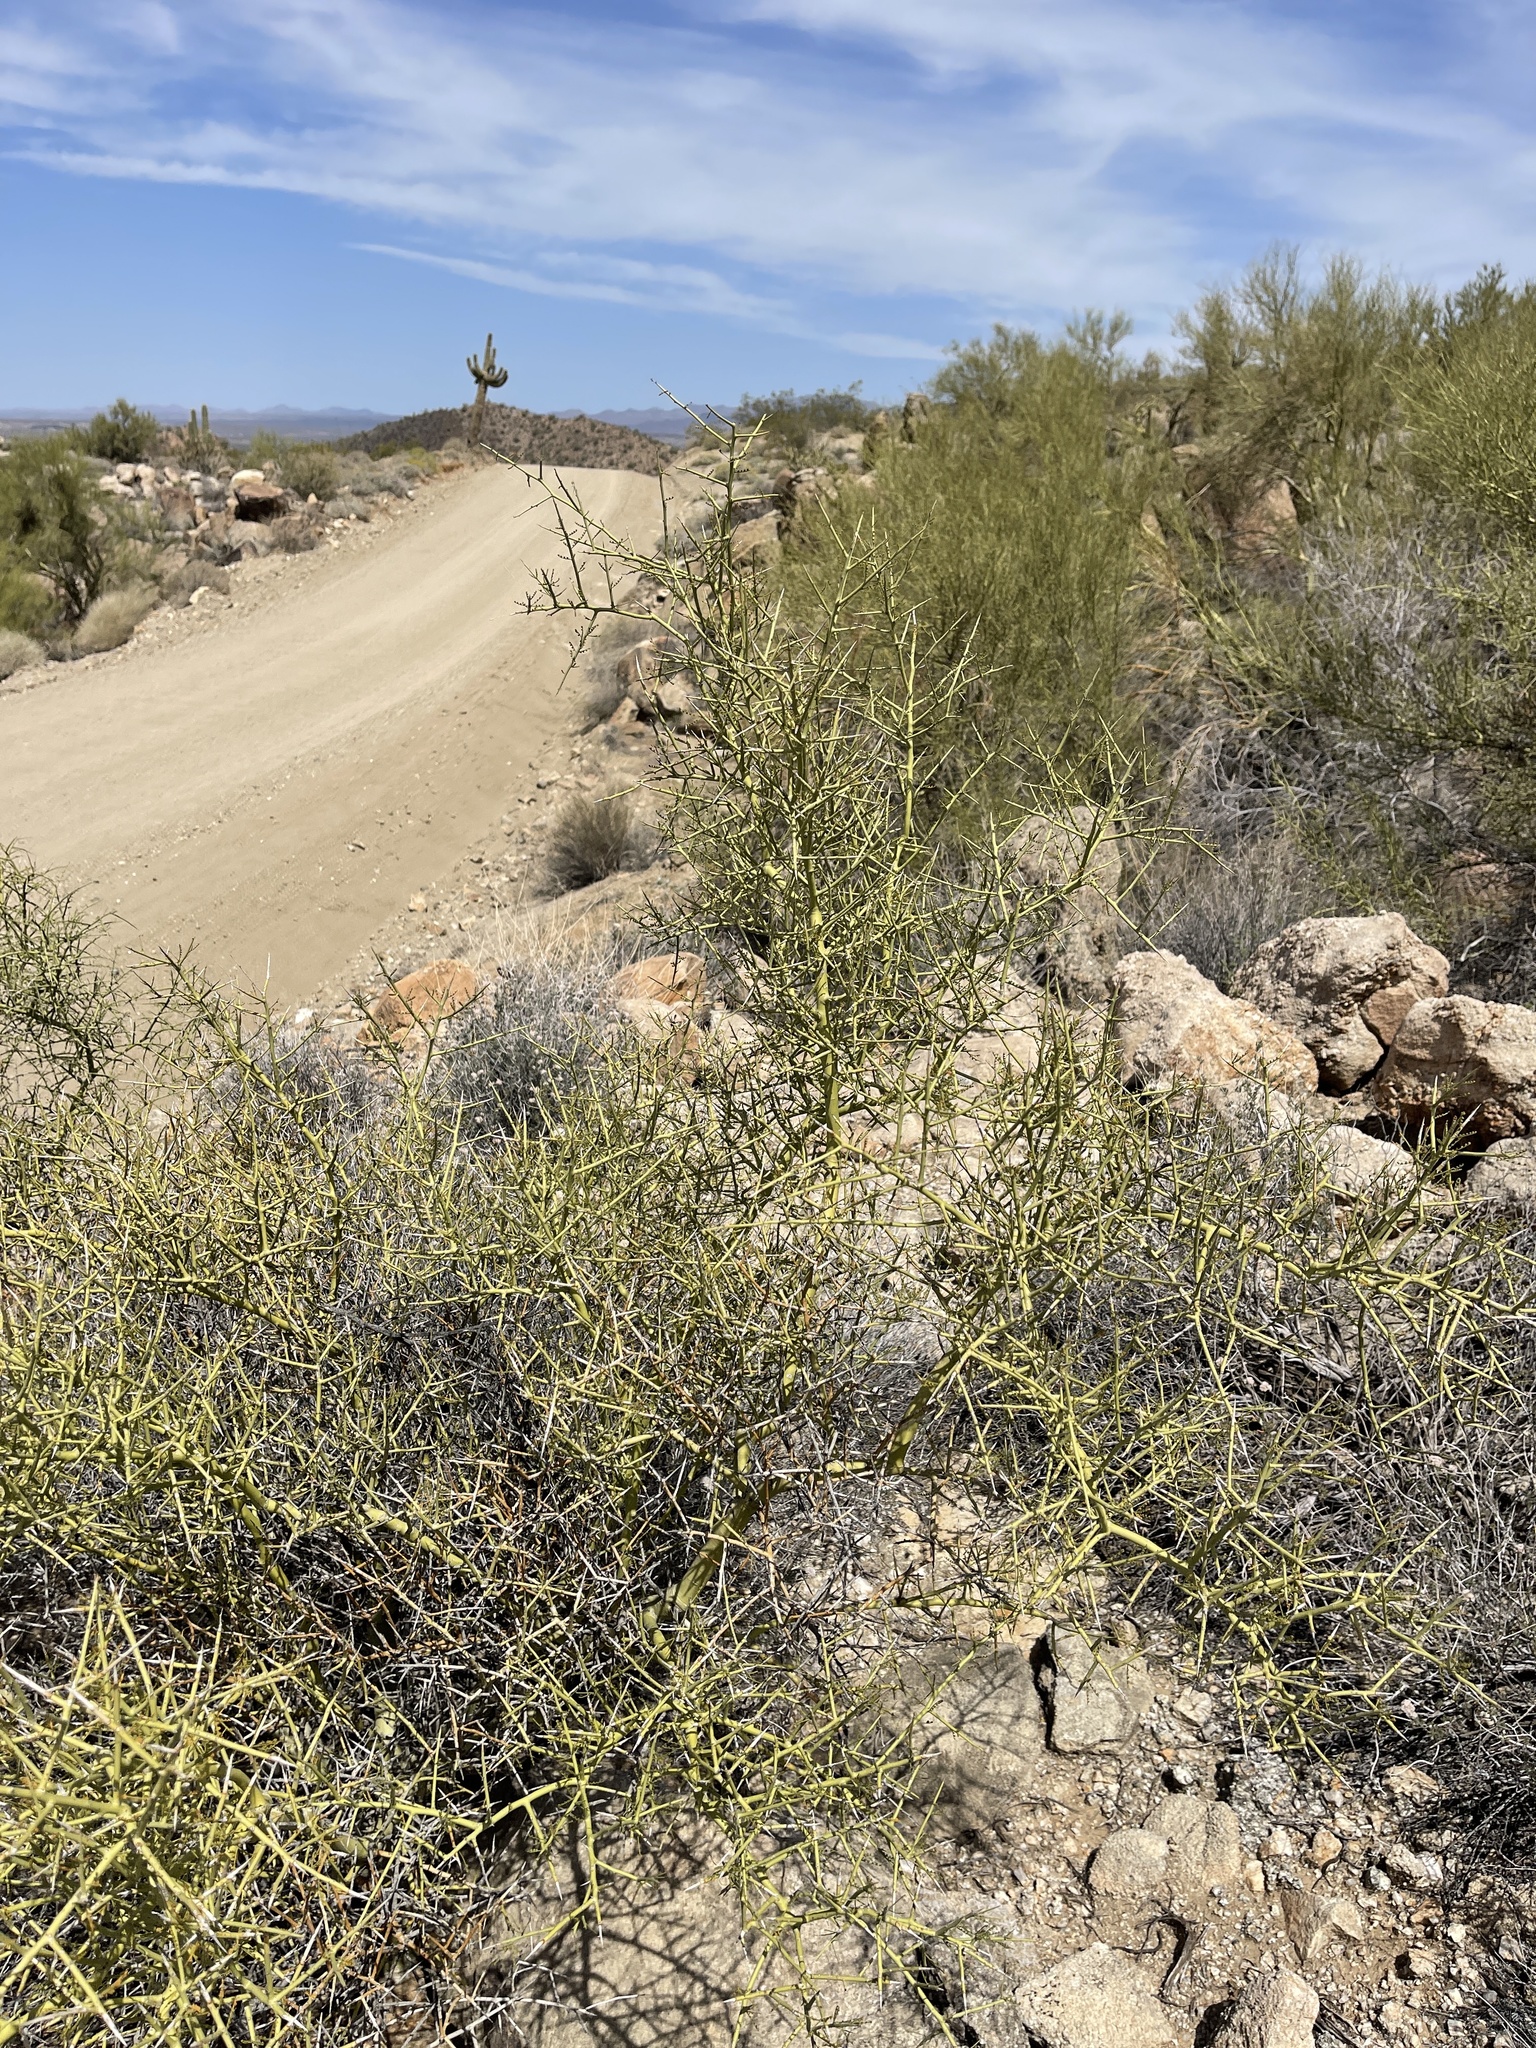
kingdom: Plantae
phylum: Tracheophyta
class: Magnoliopsida
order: Fabales
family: Fabaceae
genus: Parkinsonia
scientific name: Parkinsonia microphylla
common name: Yellow paloverde
